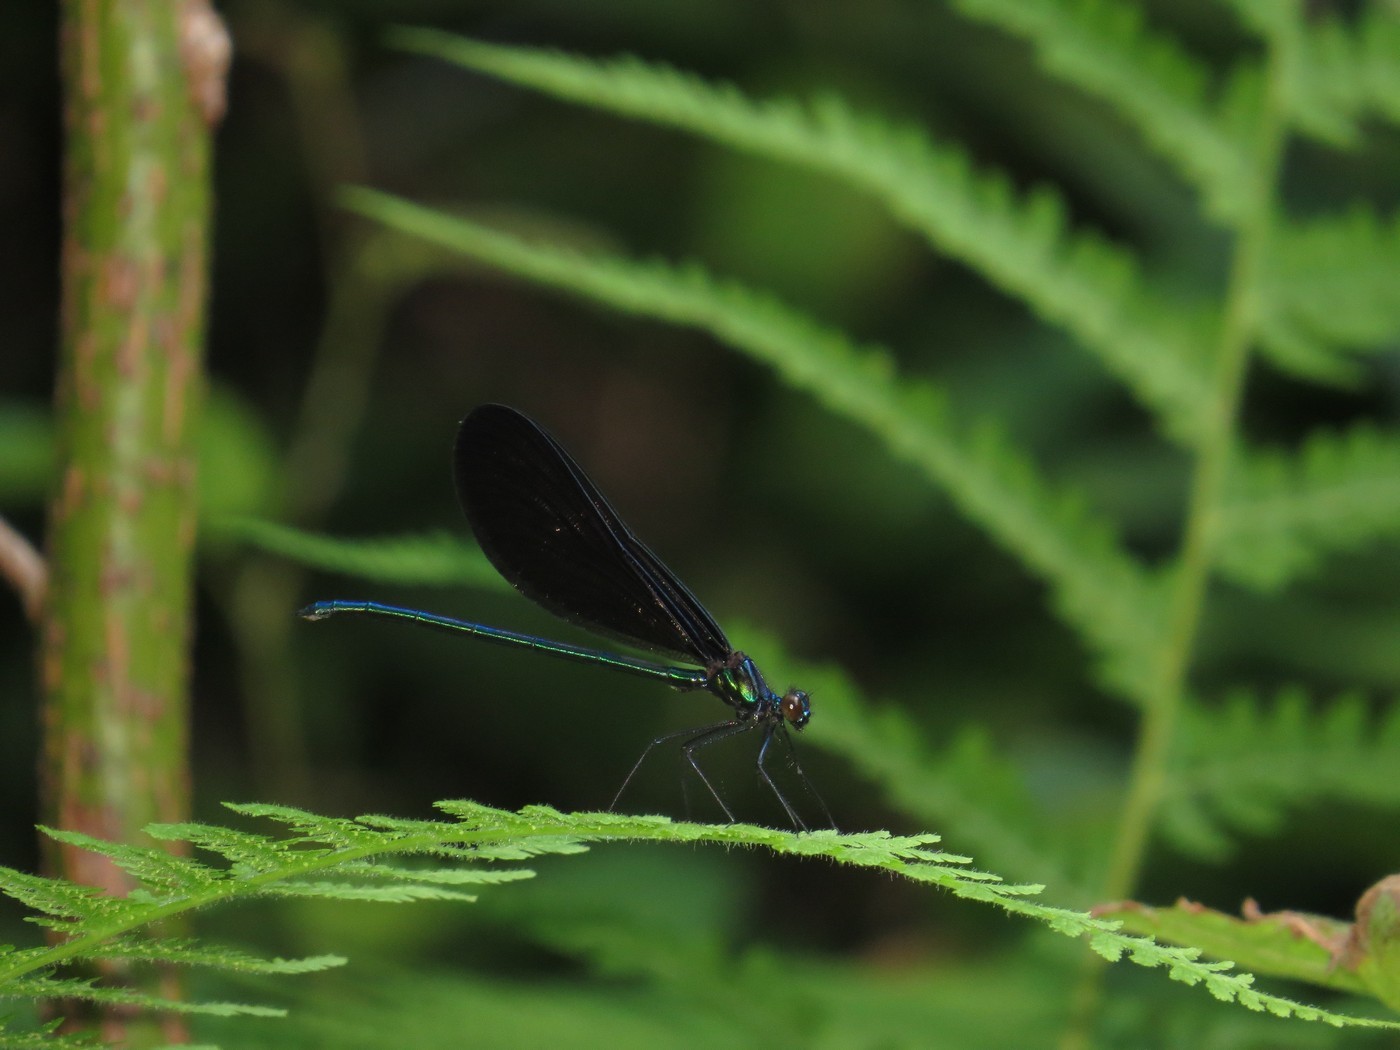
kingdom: Animalia
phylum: Arthropoda
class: Insecta
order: Odonata
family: Calopterygidae
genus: Calopteryx
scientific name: Calopteryx maculata
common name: Ebony jewelwing
